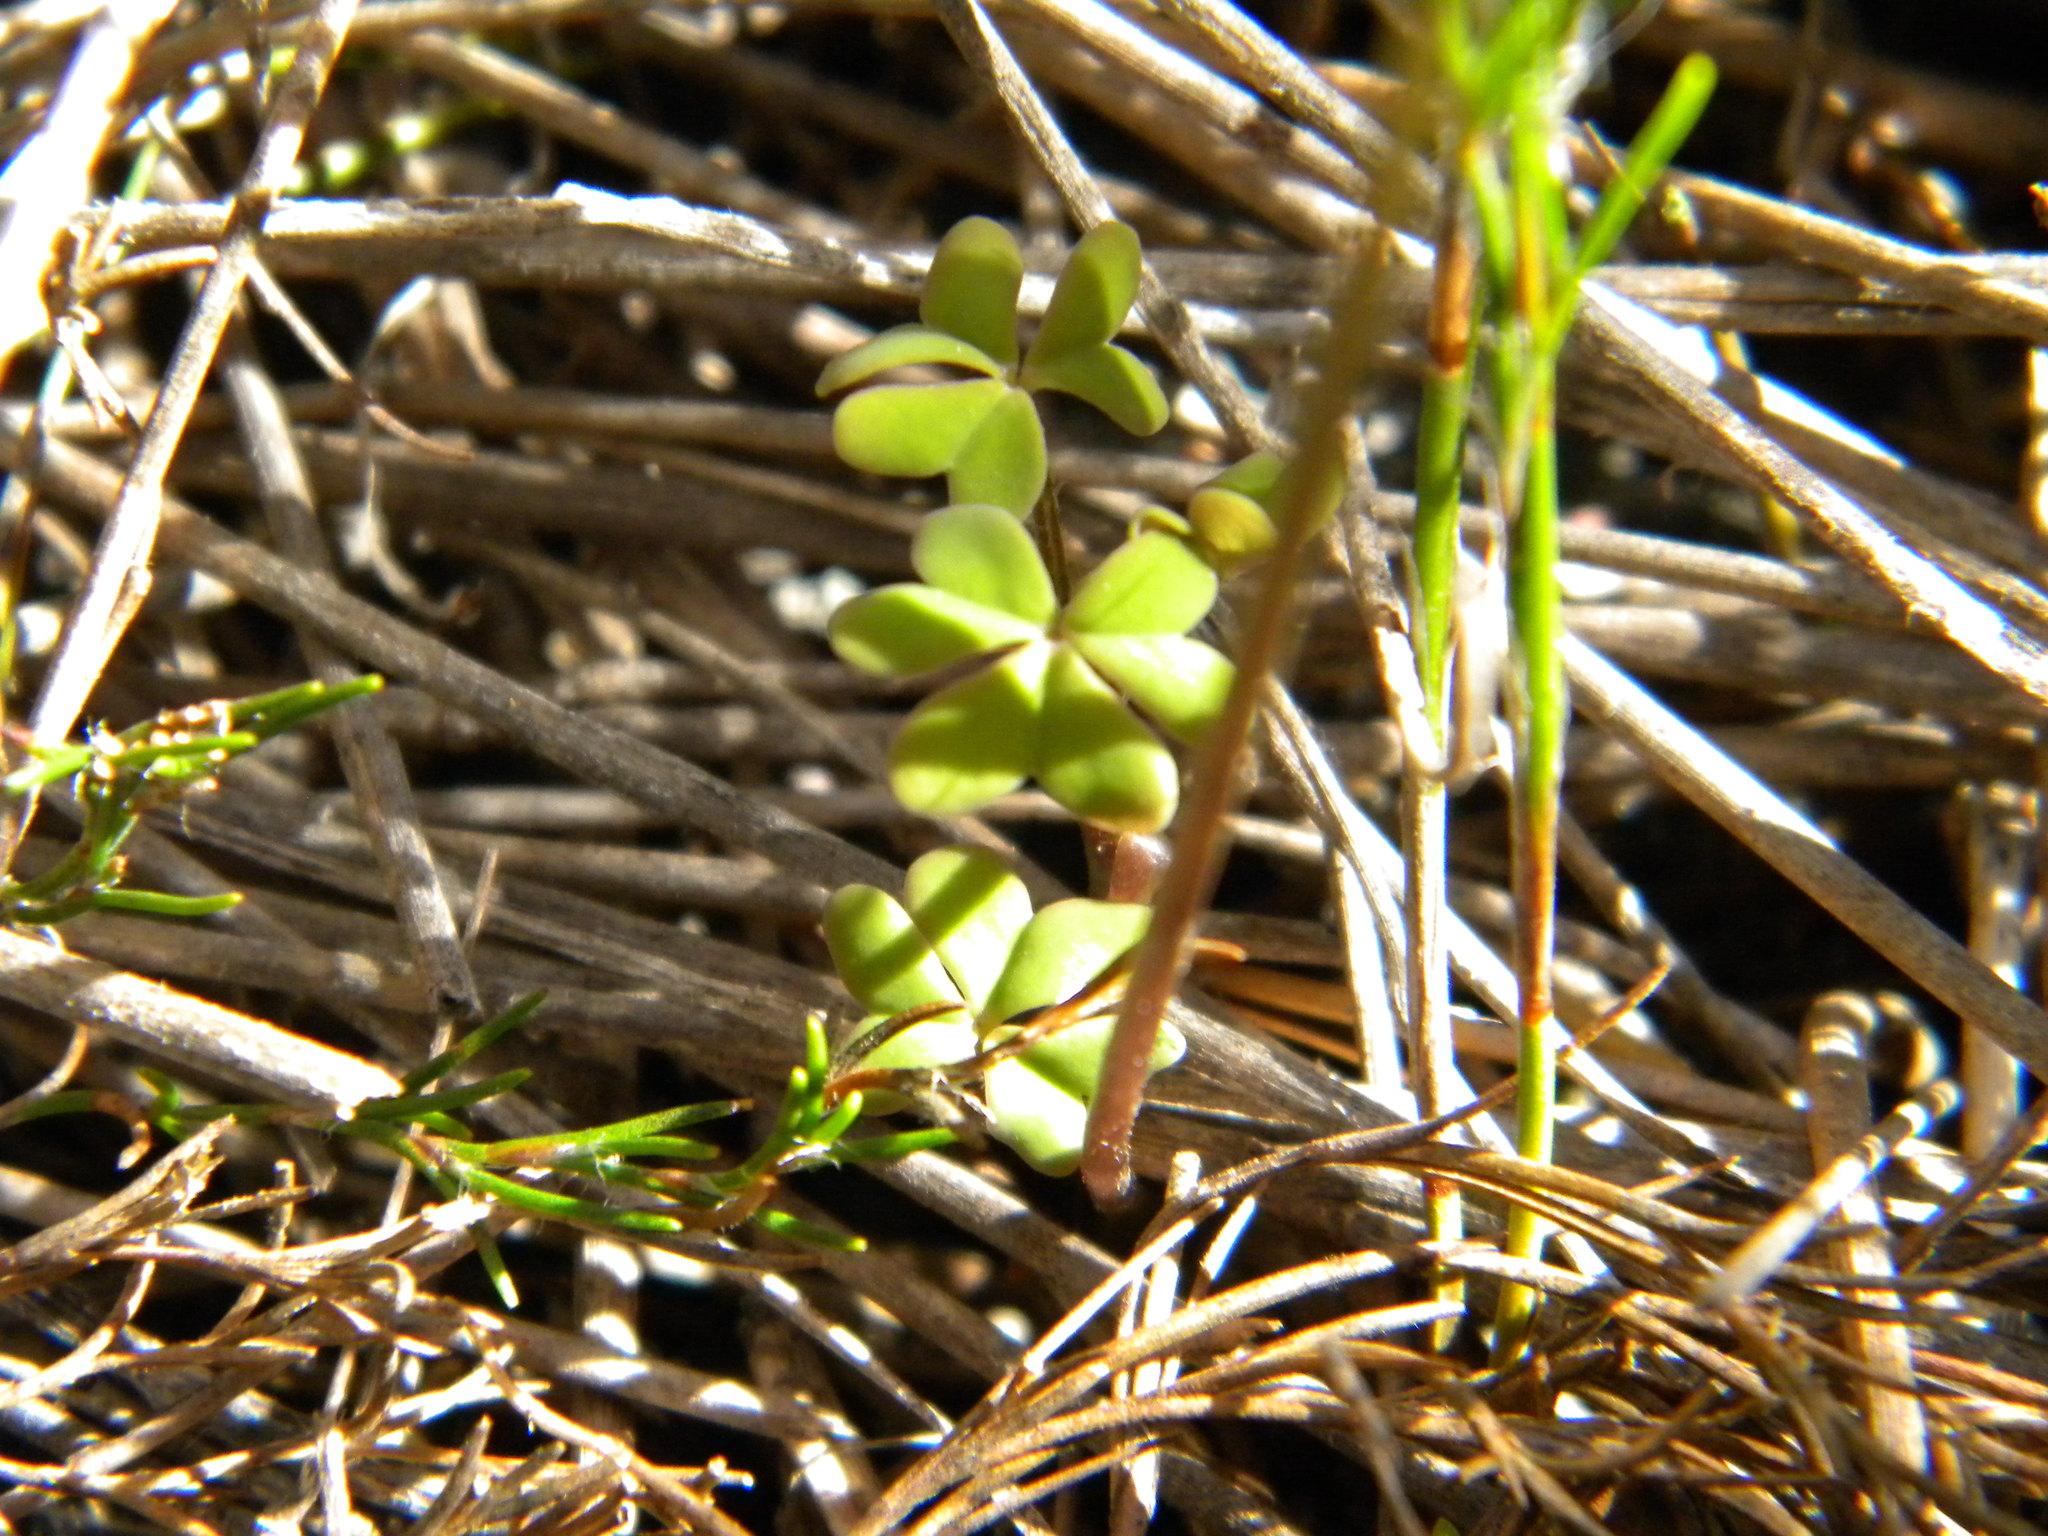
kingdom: Plantae
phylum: Tracheophyta
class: Magnoliopsida
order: Oxalidales
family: Oxalidaceae
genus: Oxalis
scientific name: Oxalis
